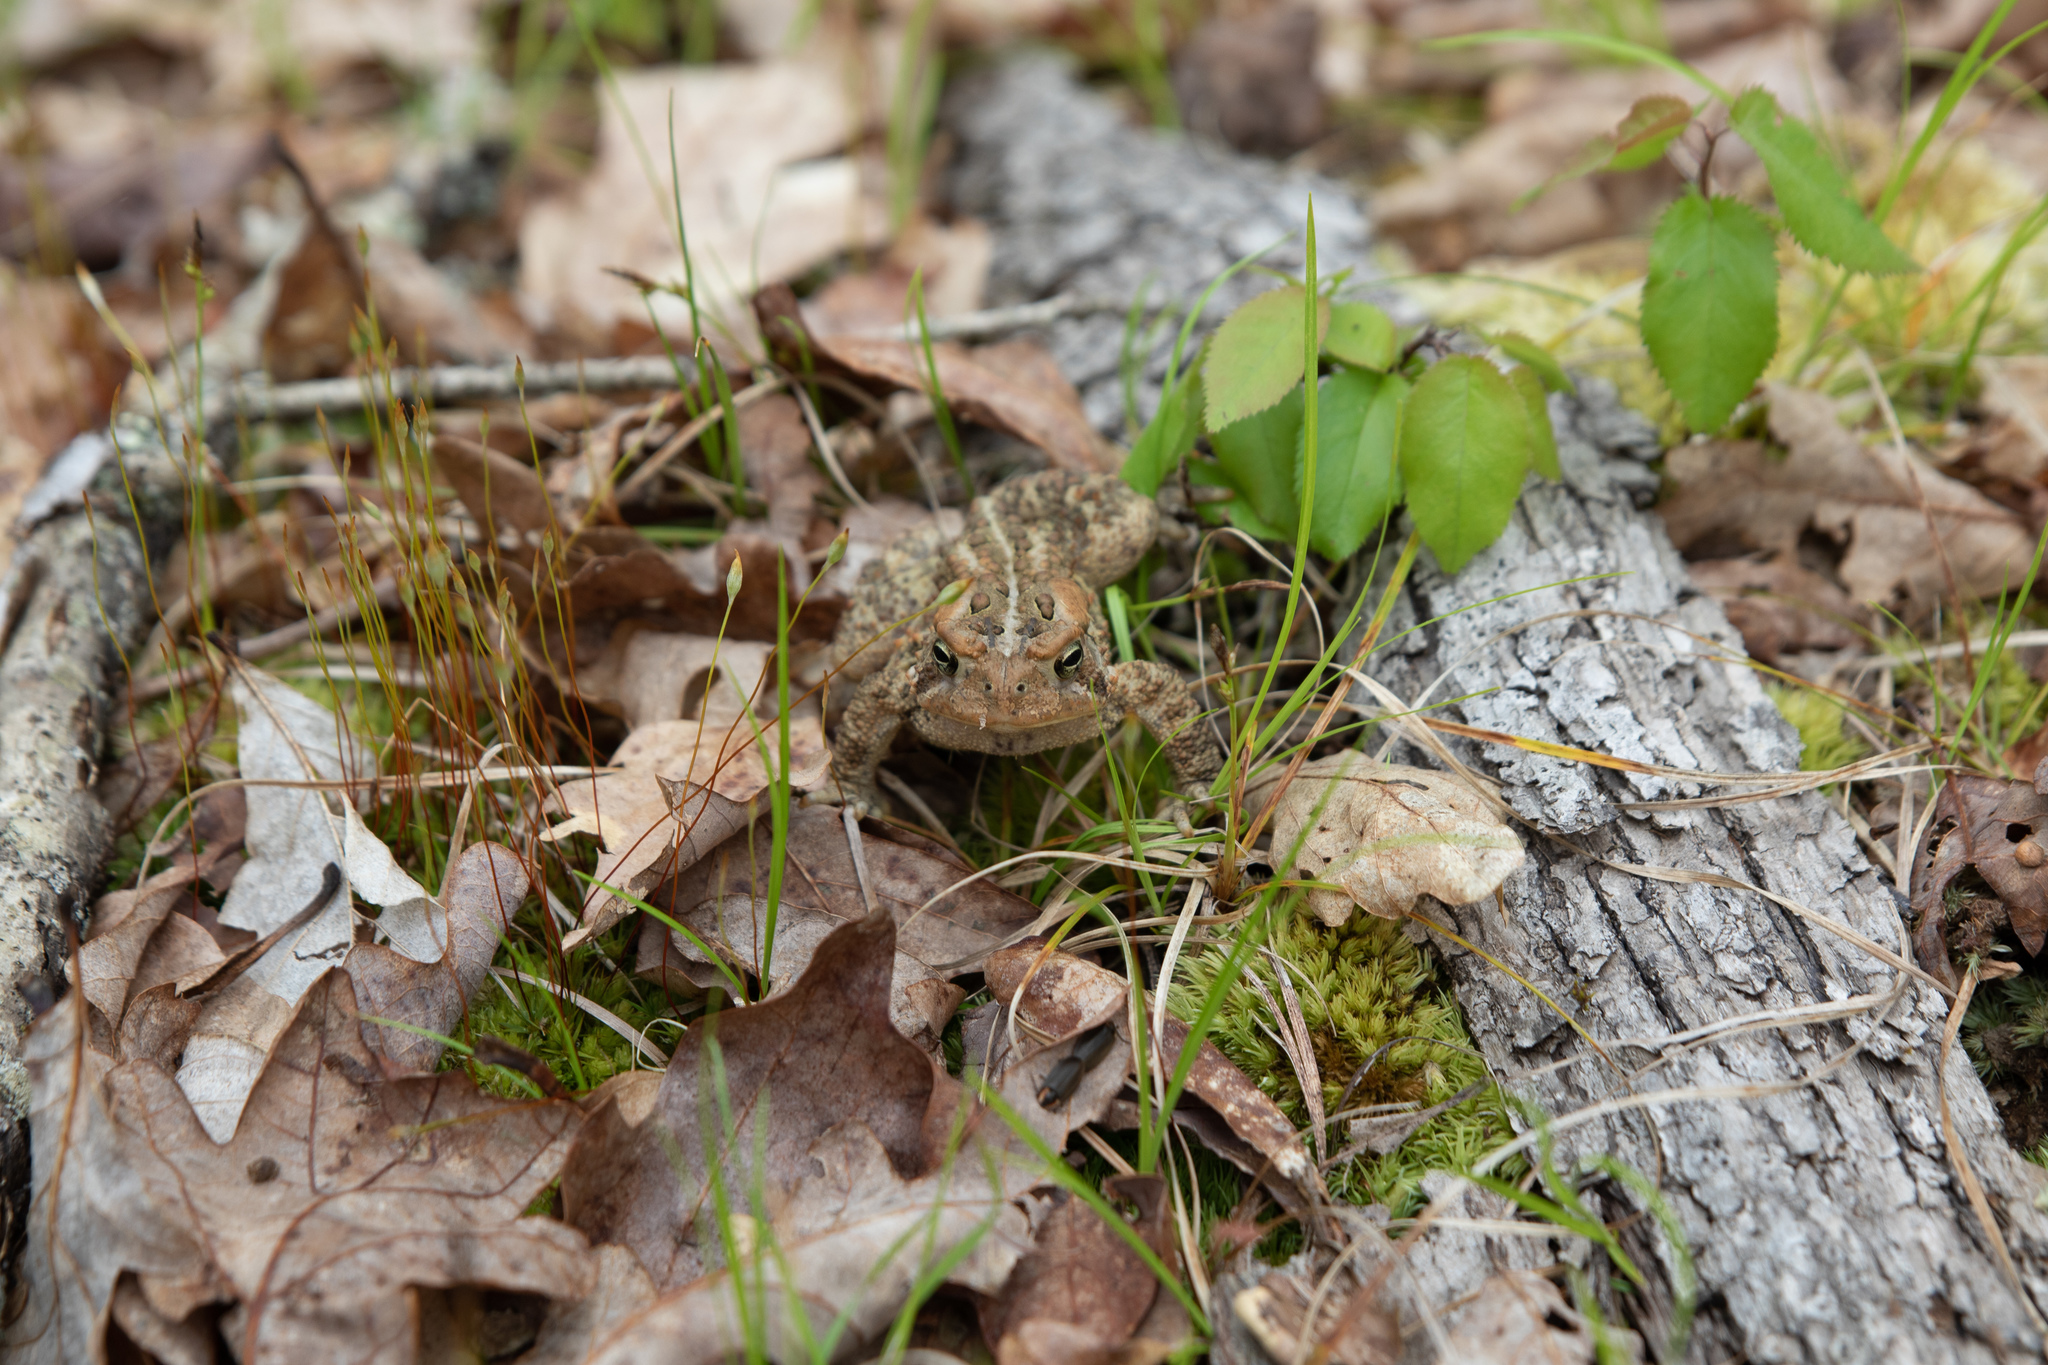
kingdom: Animalia
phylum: Chordata
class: Amphibia
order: Anura
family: Bufonidae
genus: Anaxyrus
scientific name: Anaxyrus americanus
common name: American toad
